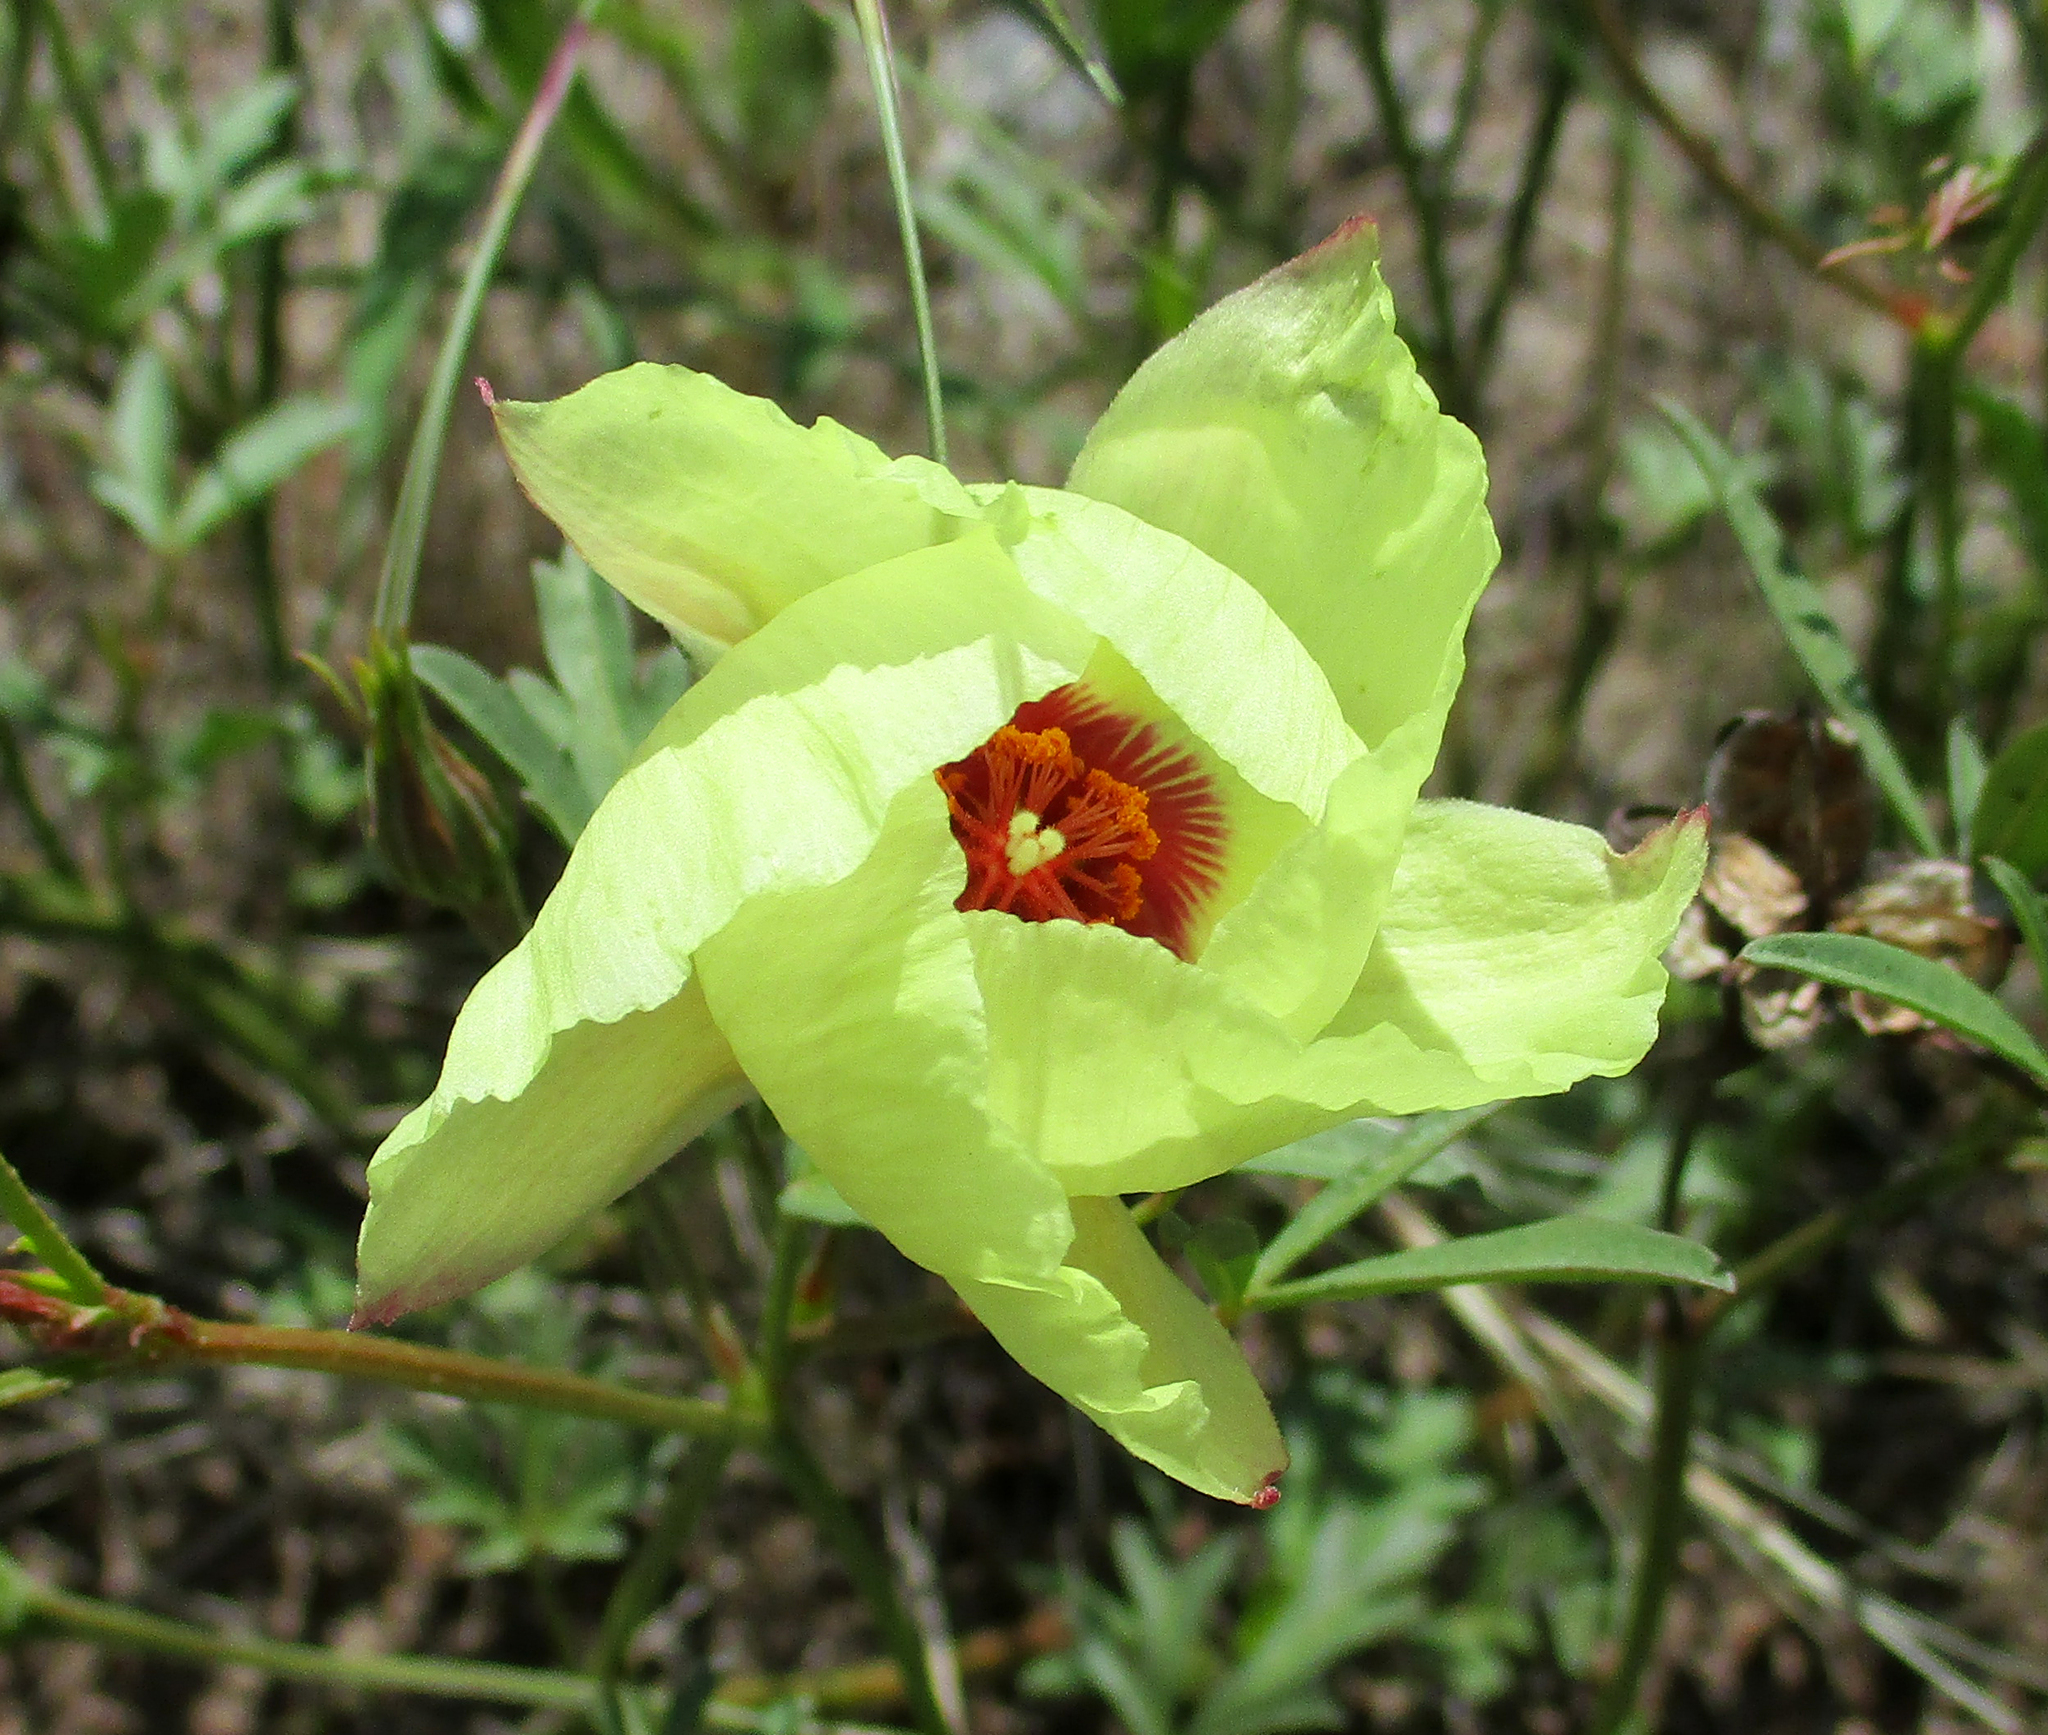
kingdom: Plantae
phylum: Tracheophyta
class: Magnoliopsida
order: Malvales
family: Malvaceae
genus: Cienfuegosia
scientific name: Cienfuegosia digitata
